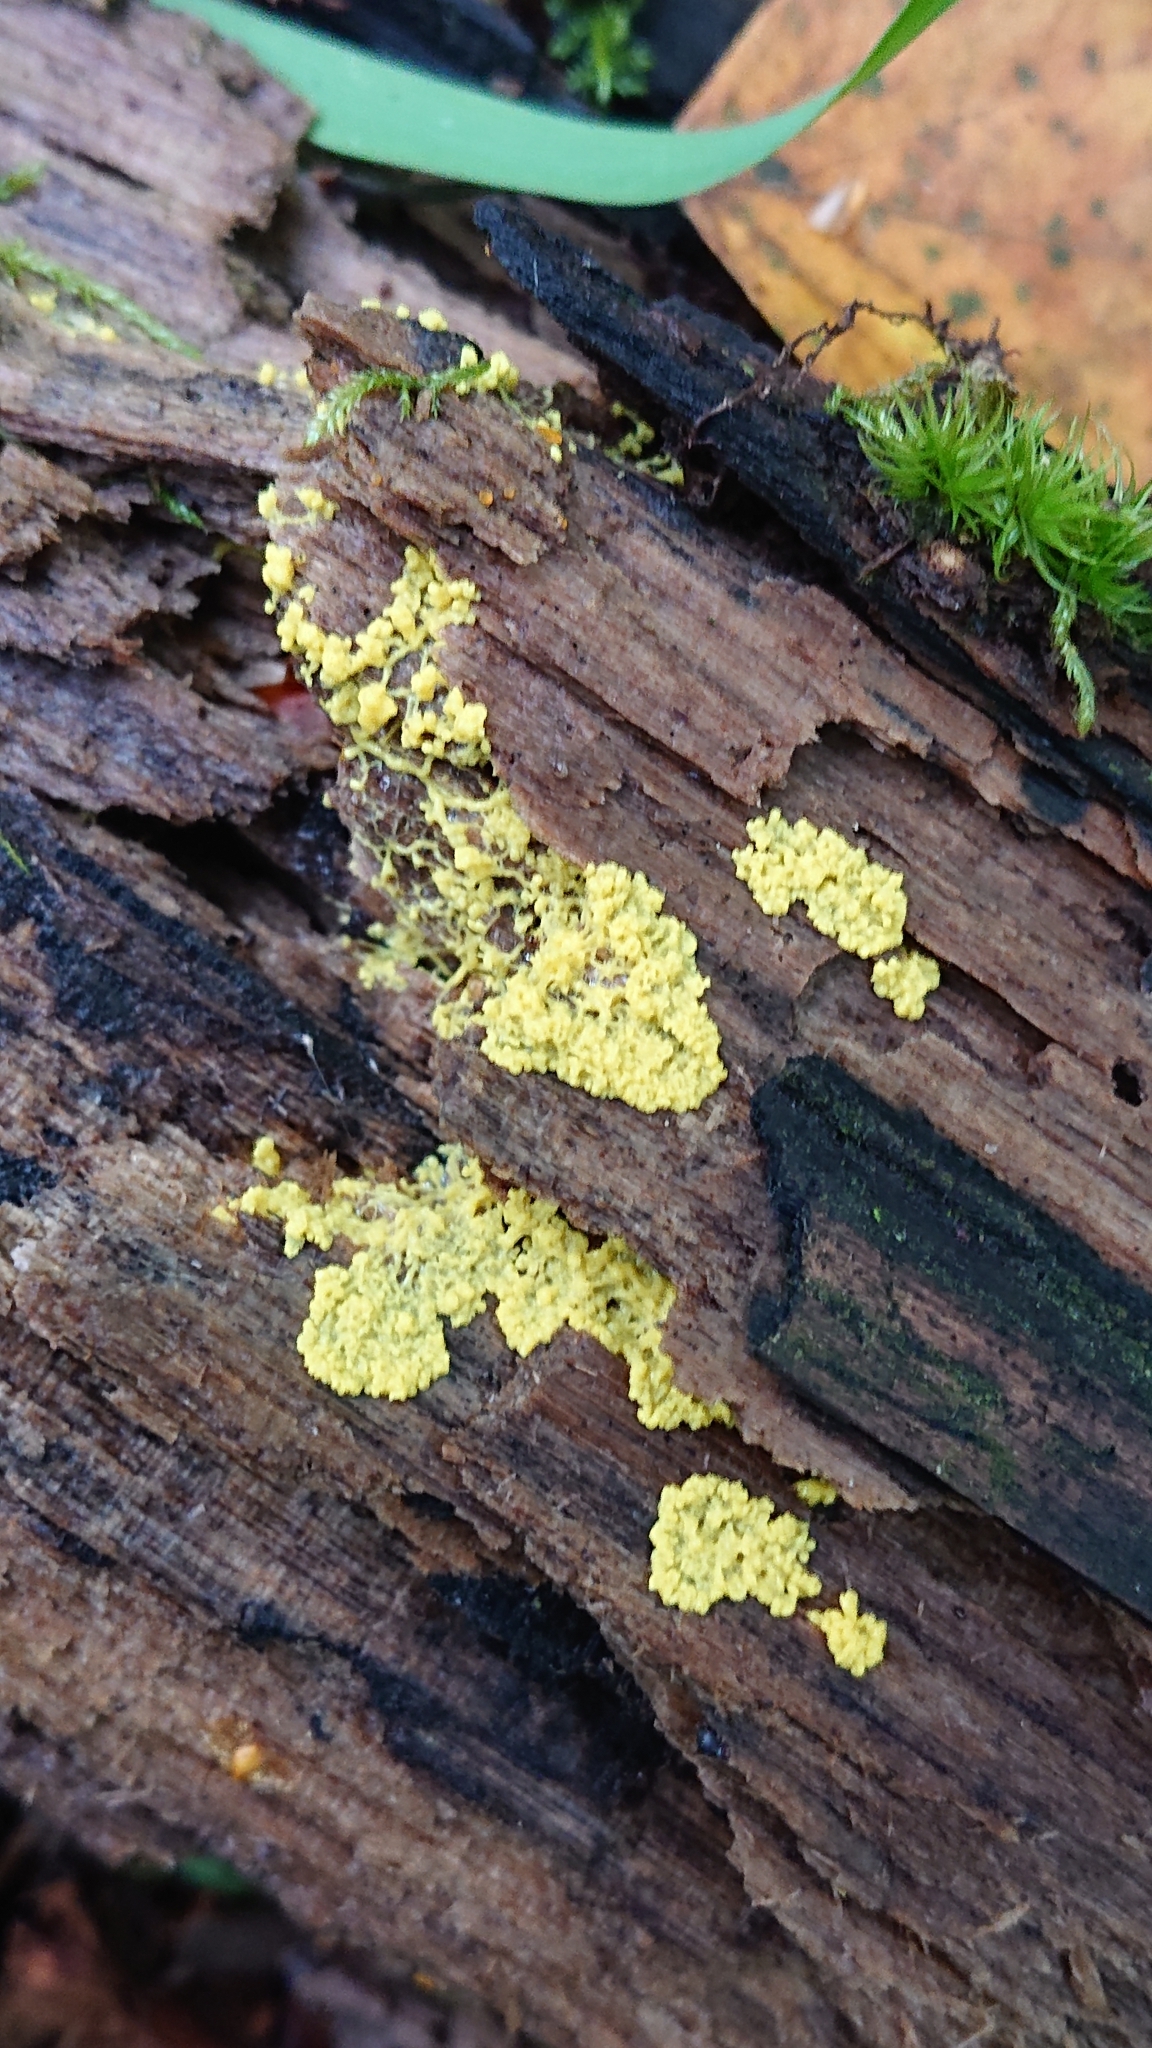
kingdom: Protozoa
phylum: Mycetozoa
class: Myxomycetes
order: Physarales
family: Physaraceae
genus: Fuligo
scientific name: Fuligo septica
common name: Dog vomit slime mold
